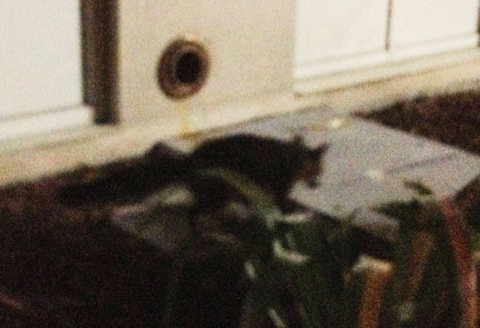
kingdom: Animalia
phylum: Chordata
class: Mammalia
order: Carnivora
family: Canidae
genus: Urocyon
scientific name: Urocyon cinereoargenteus
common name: Gray fox
